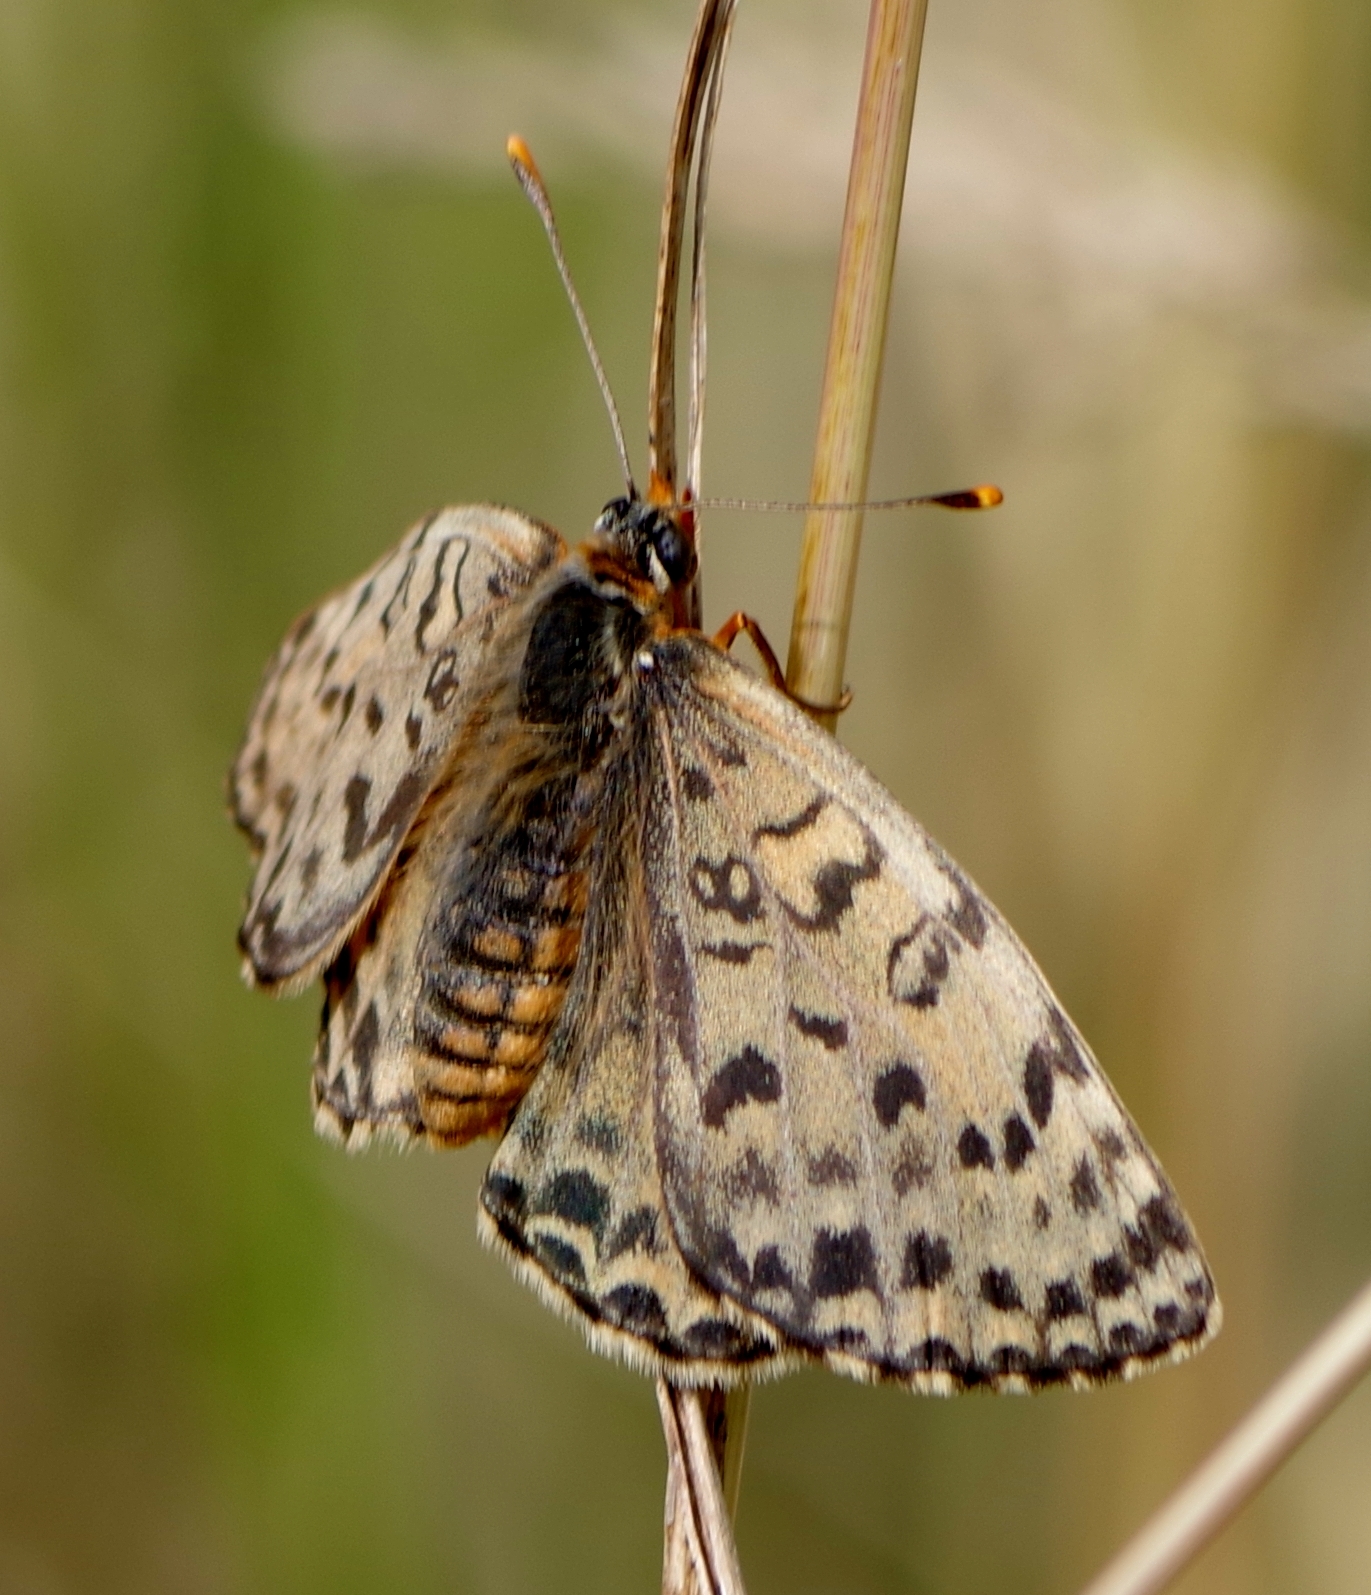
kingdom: Animalia
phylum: Arthropoda
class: Insecta
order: Lepidoptera
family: Nymphalidae
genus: Melitaea
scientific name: Melitaea didyma
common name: Spotted fritillary
